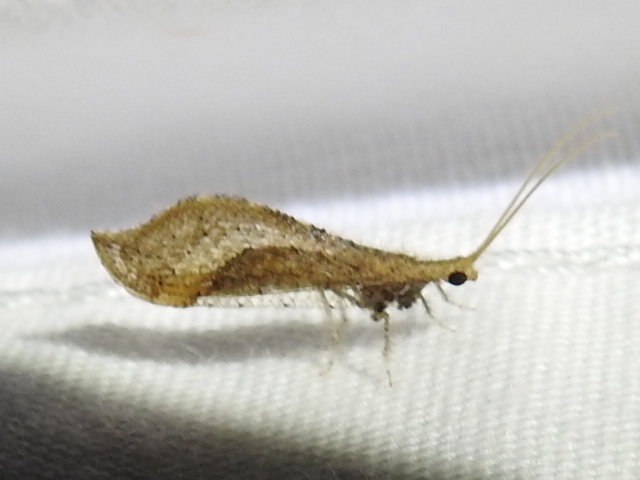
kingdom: Animalia
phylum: Arthropoda
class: Insecta
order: Neuroptera
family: Berothidae
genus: Lomamyia
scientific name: Lomamyia
